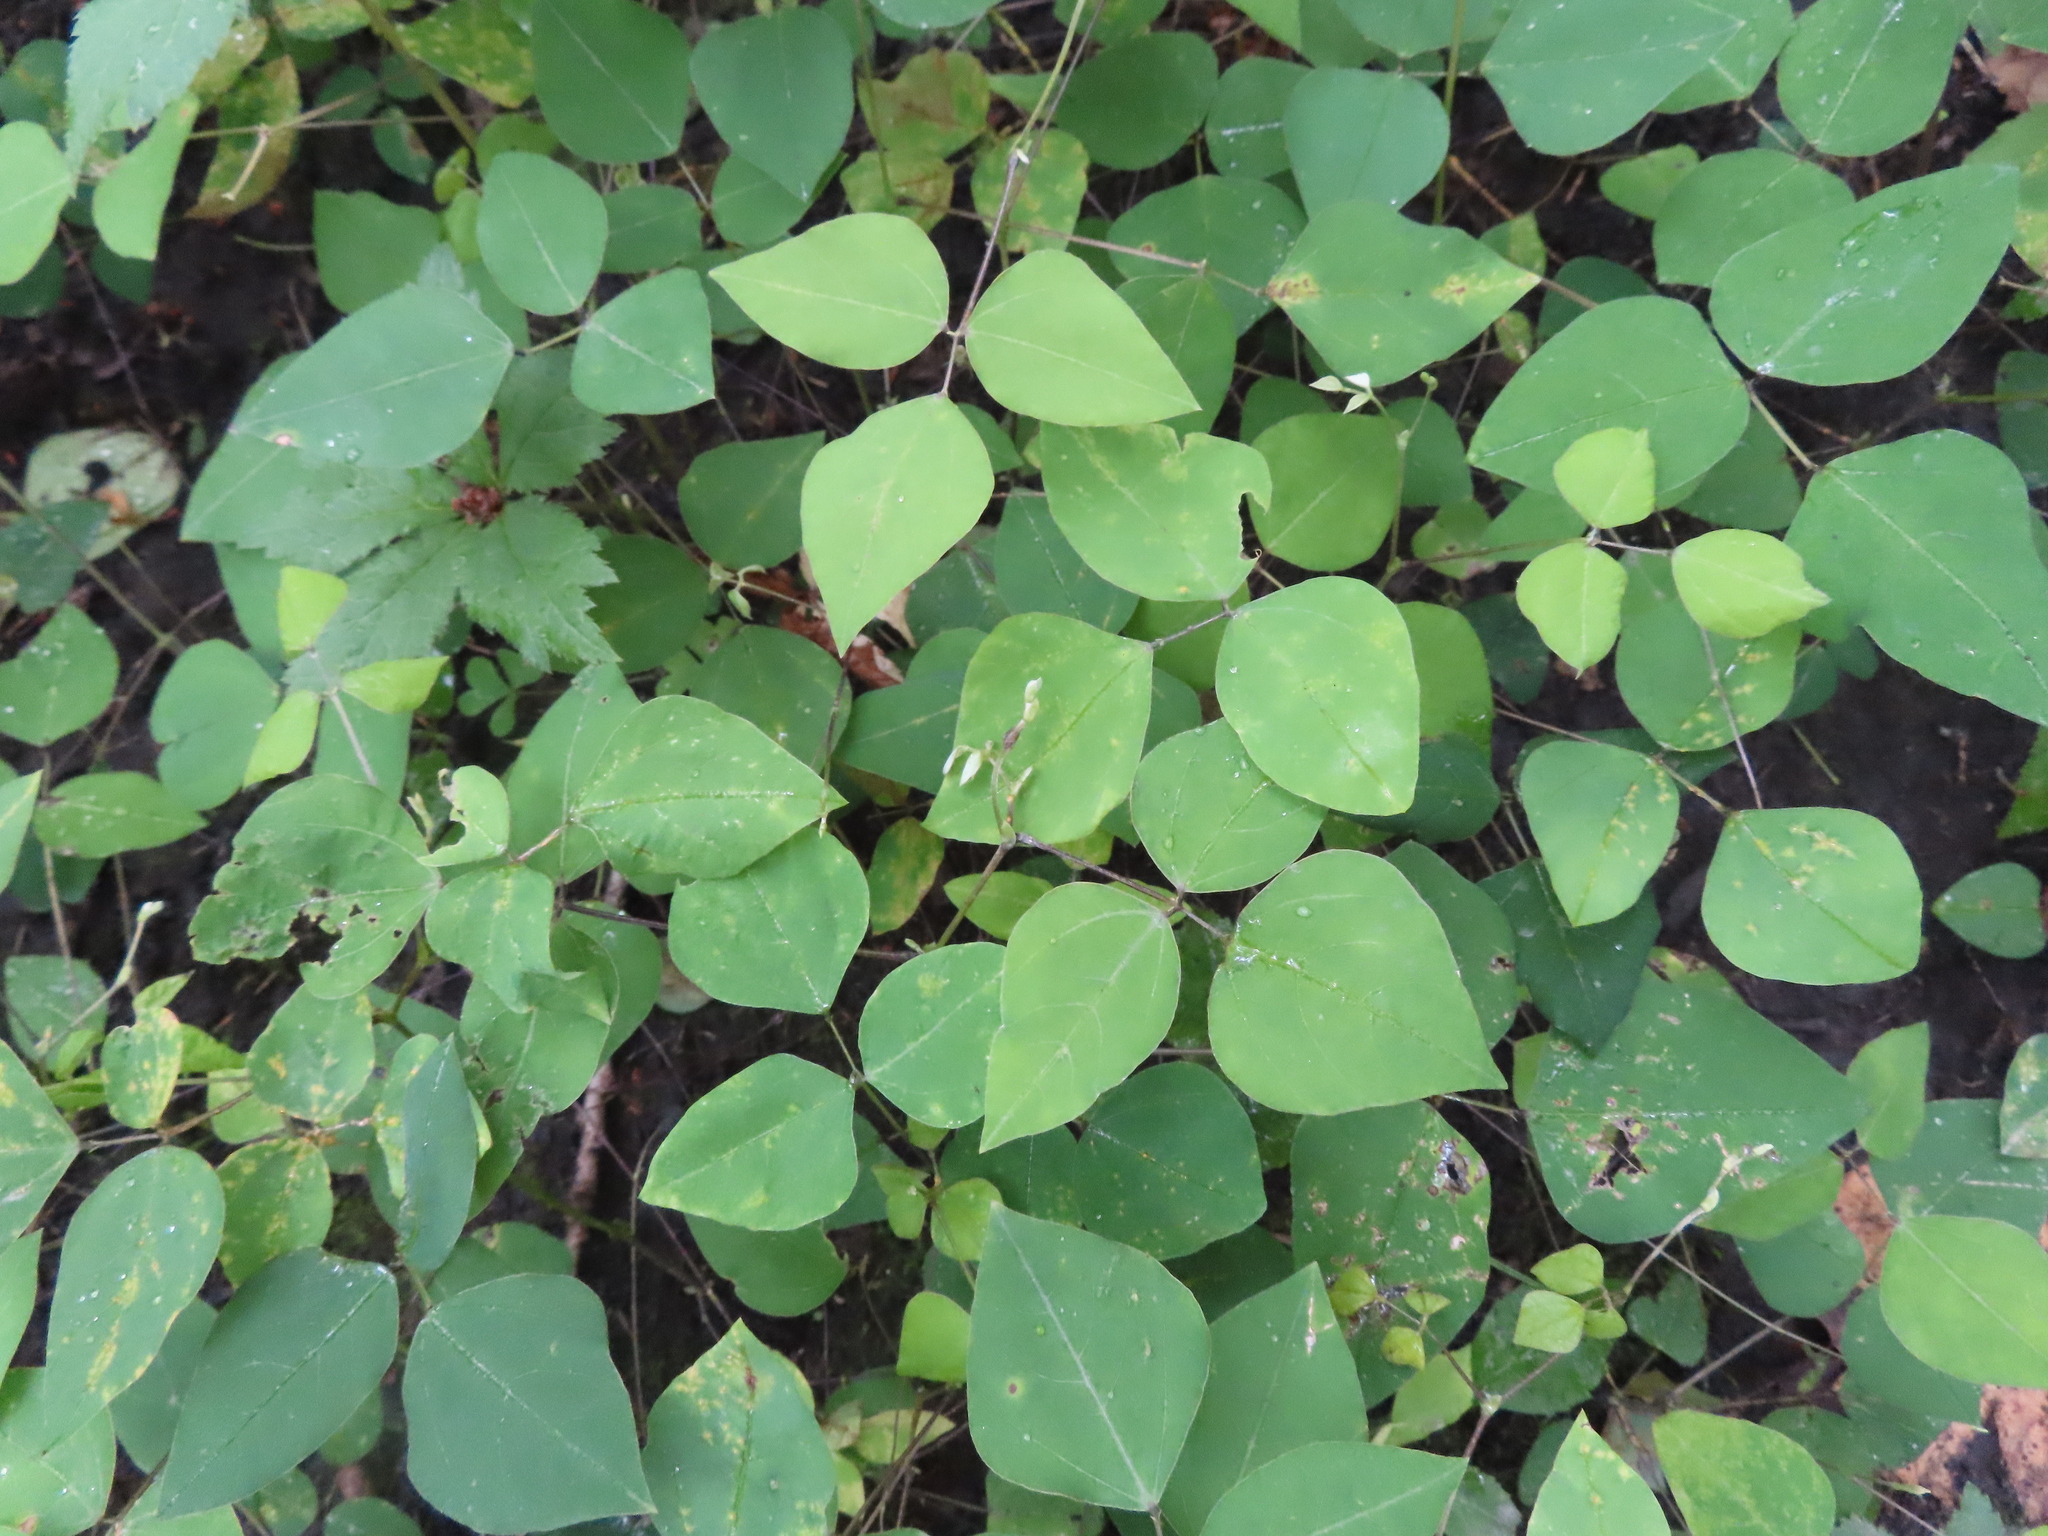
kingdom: Plantae
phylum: Tracheophyta
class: Magnoliopsida
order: Fabales
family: Fabaceae
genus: Amphicarpaea
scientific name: Amphicarpaea bracteata
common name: American hog peanut
